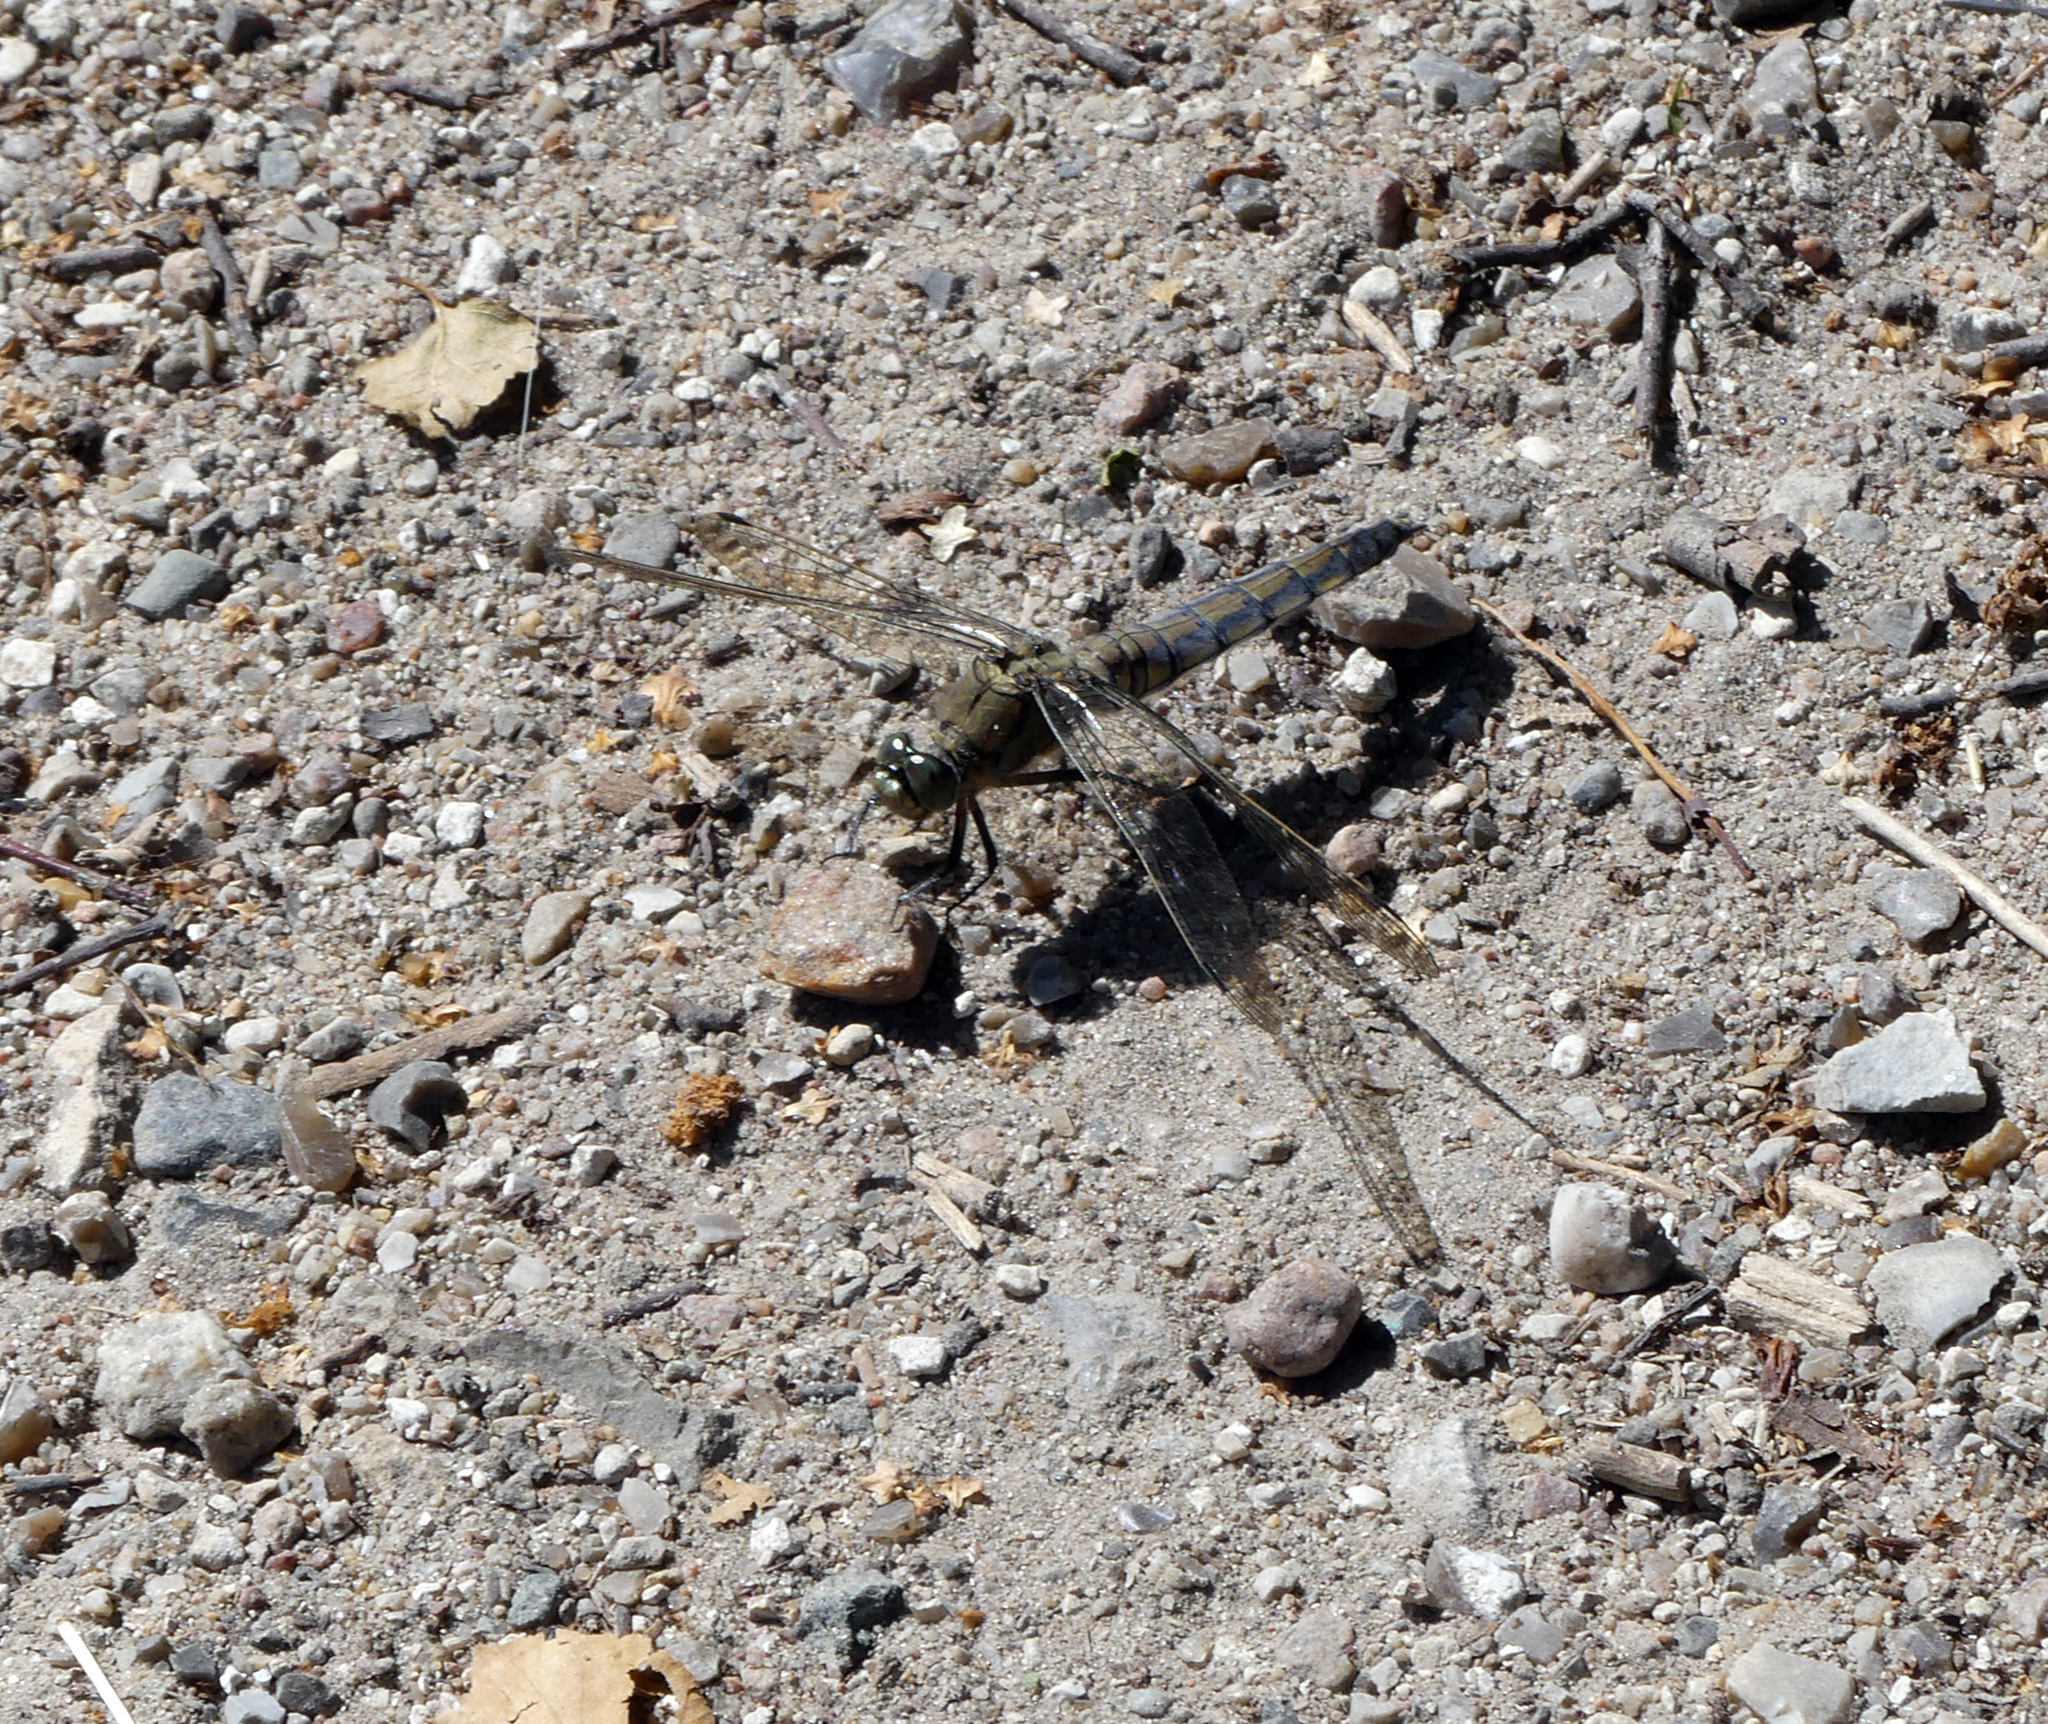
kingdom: Animalia
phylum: Arthropoda
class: Insecta
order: Odonata
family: Libellulidae
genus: Orthetrum
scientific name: Orthetrum cancellatum
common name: Black-tailed skimmer
